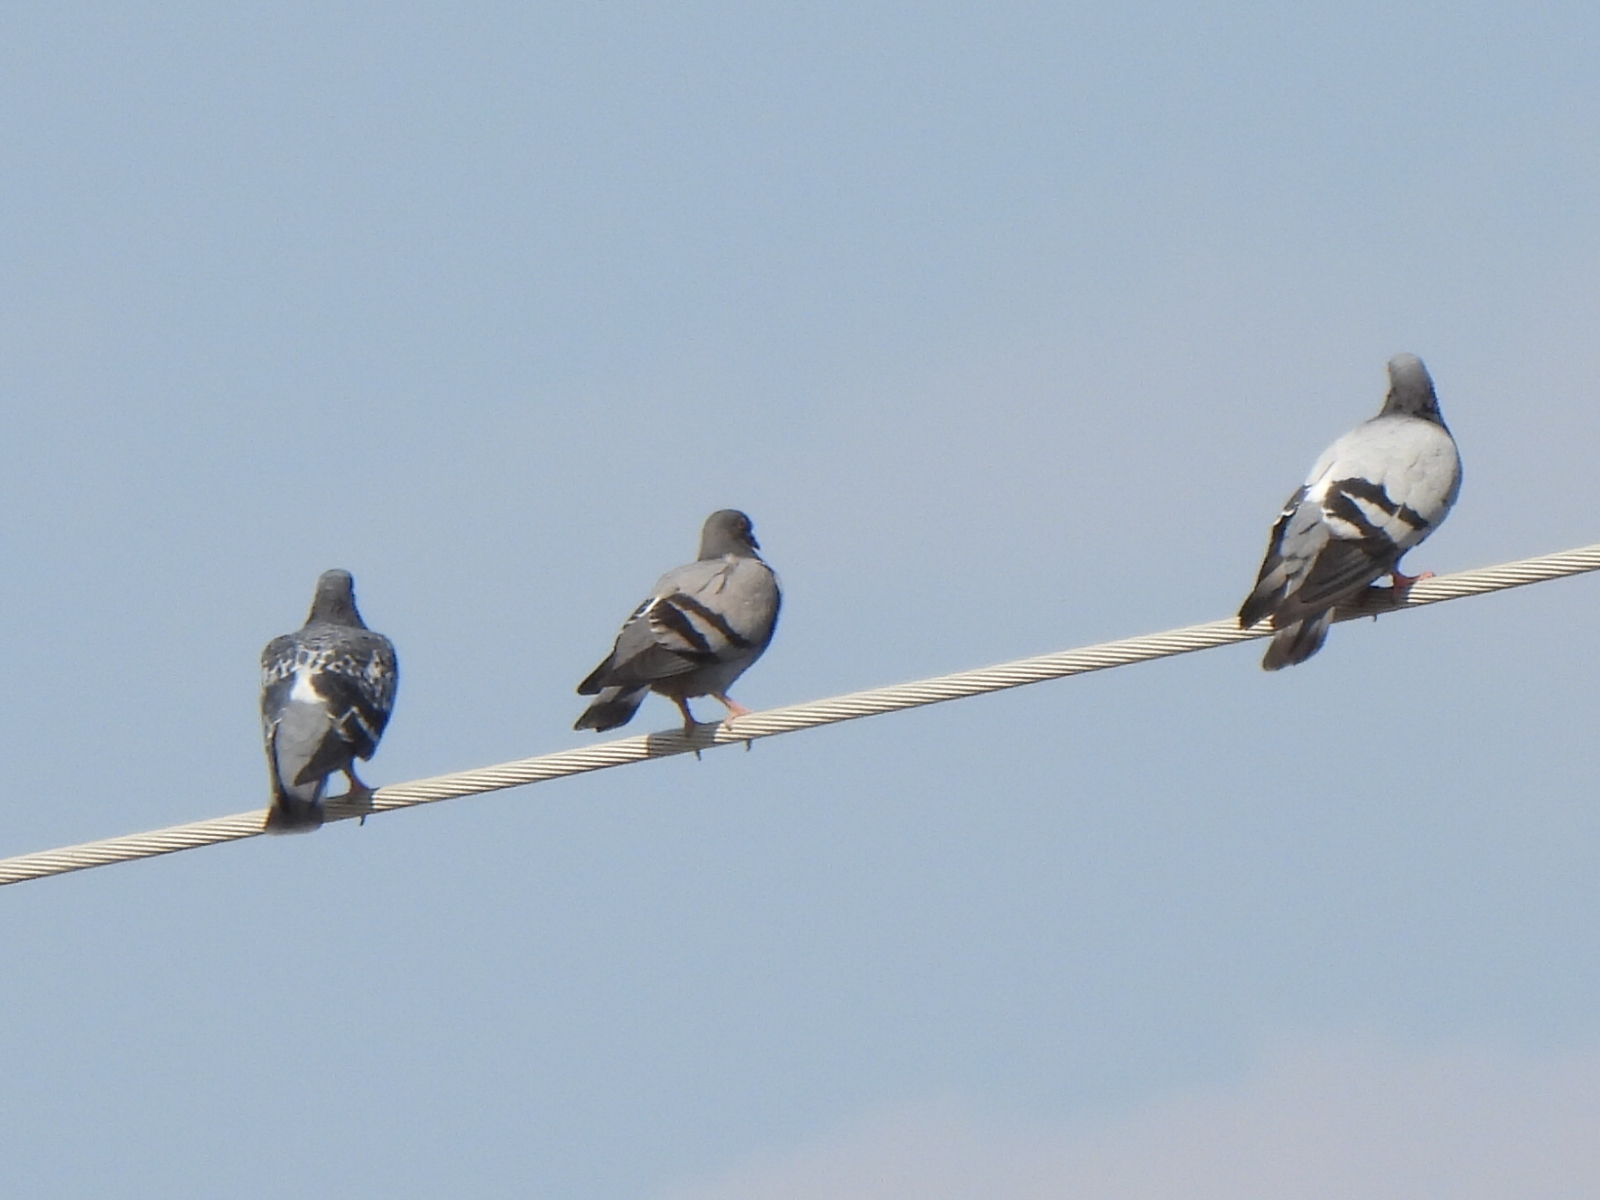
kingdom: Animalia
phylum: Chordata
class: Aves
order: Columbiformes
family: Columbidae
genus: Columba
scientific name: Columba livia
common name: Rock pigeon
